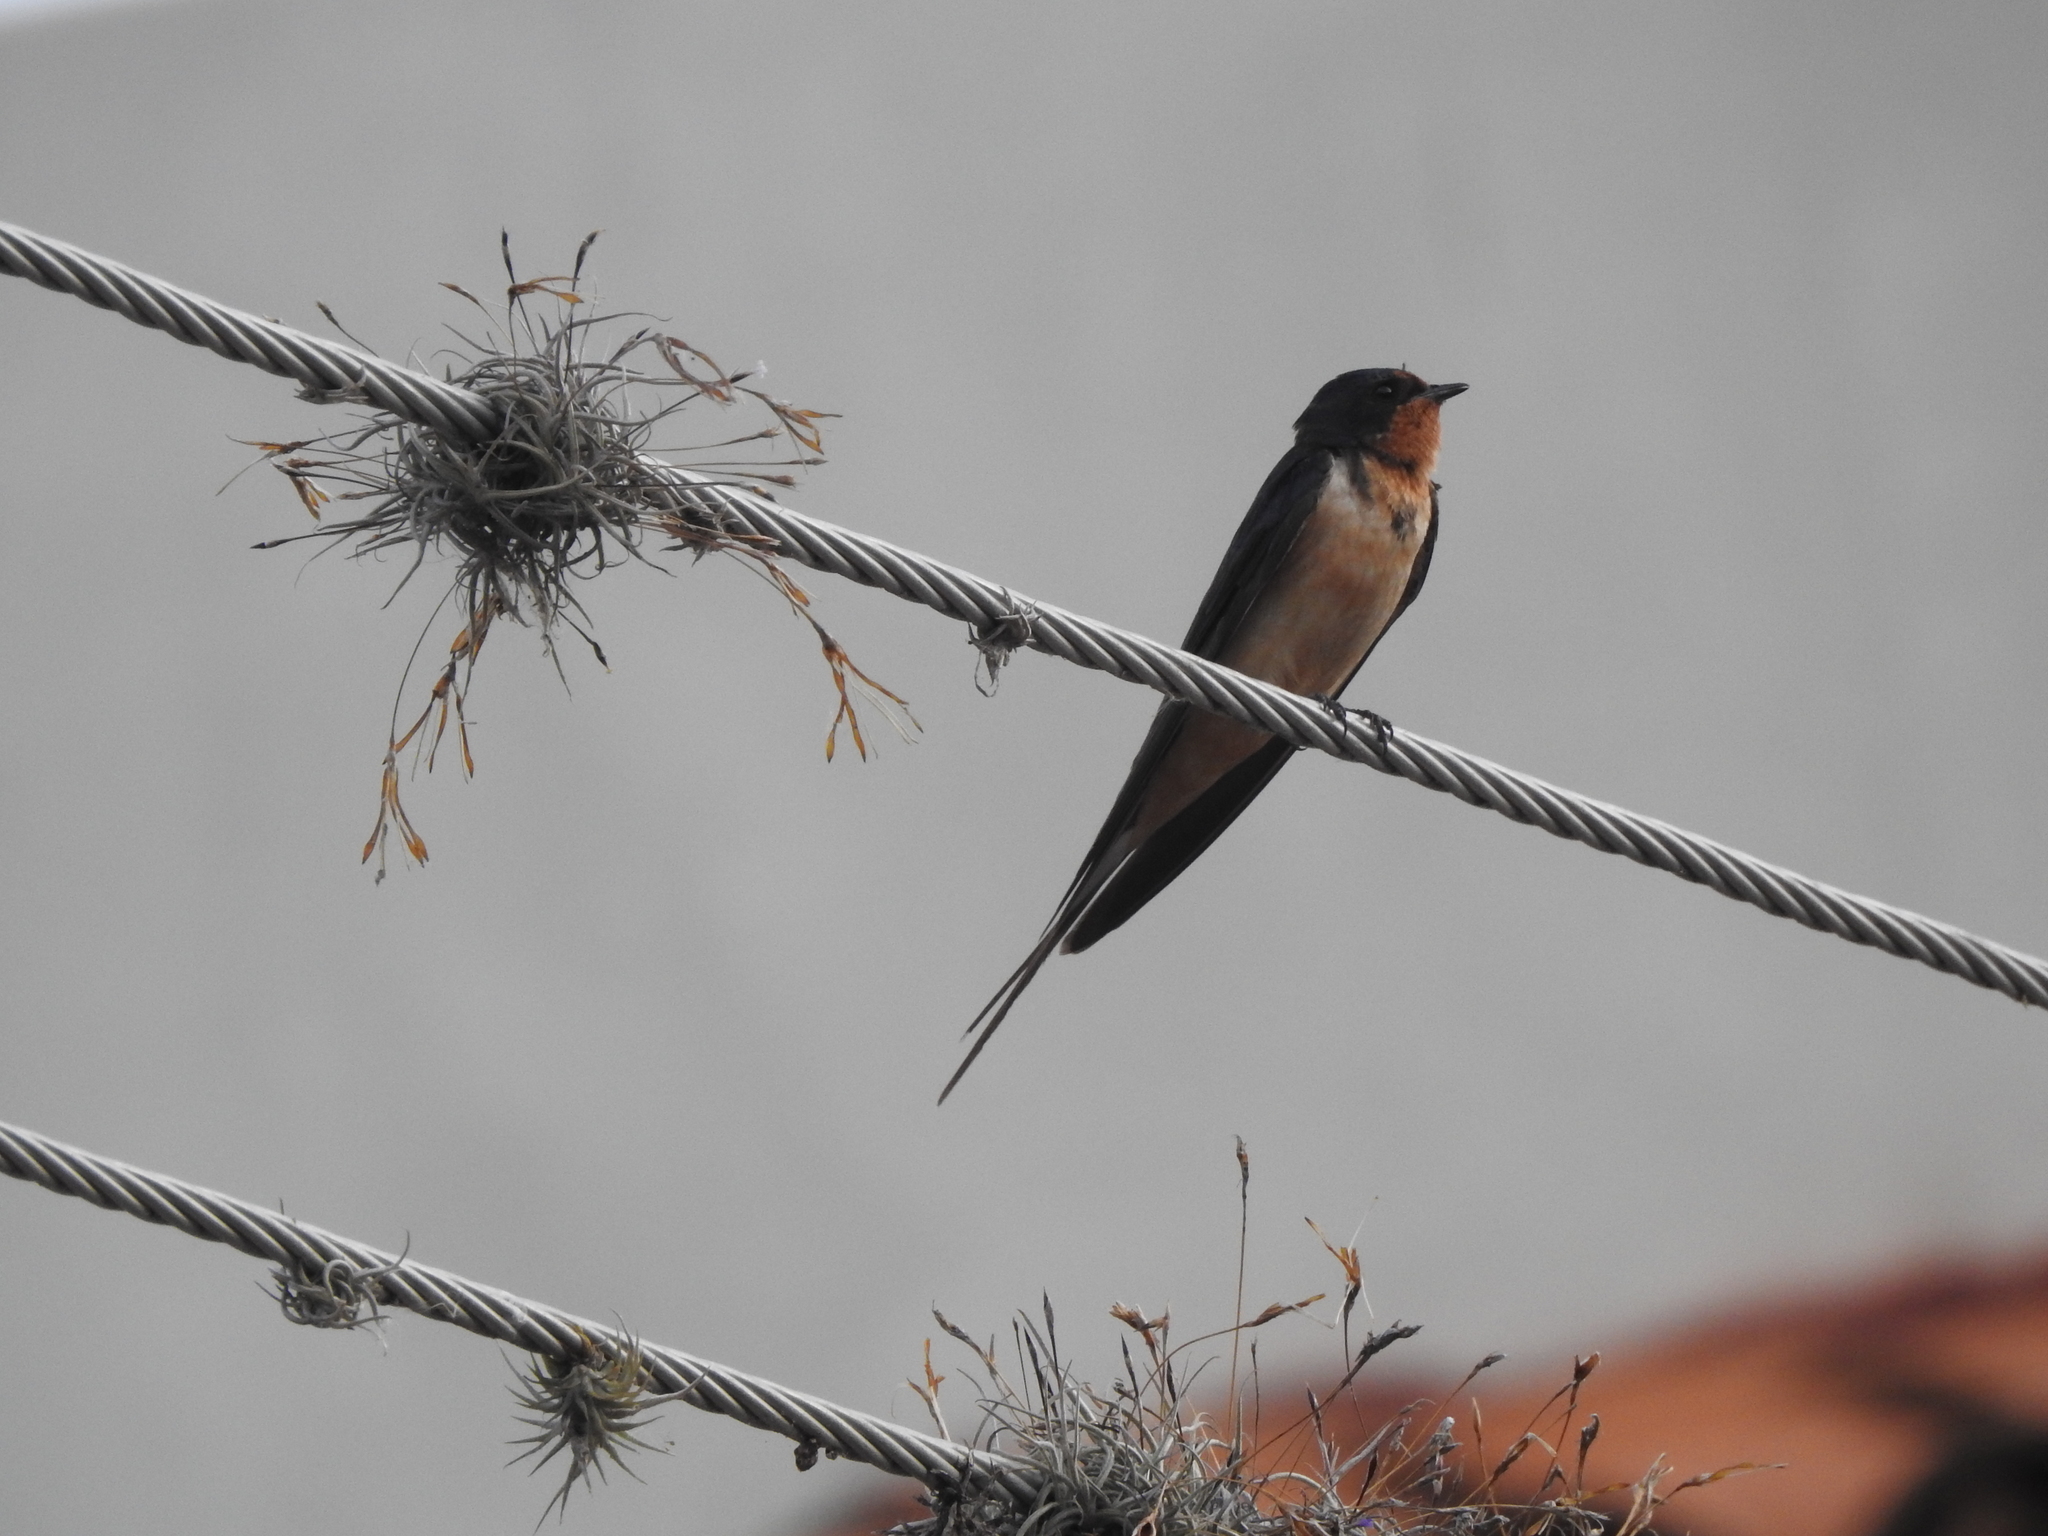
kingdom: Animalia
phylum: Chordata
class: Aves
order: Passeriformes
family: Hirundinidae
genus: Hirundo
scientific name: Hirundo rustica
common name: Barn swallow
